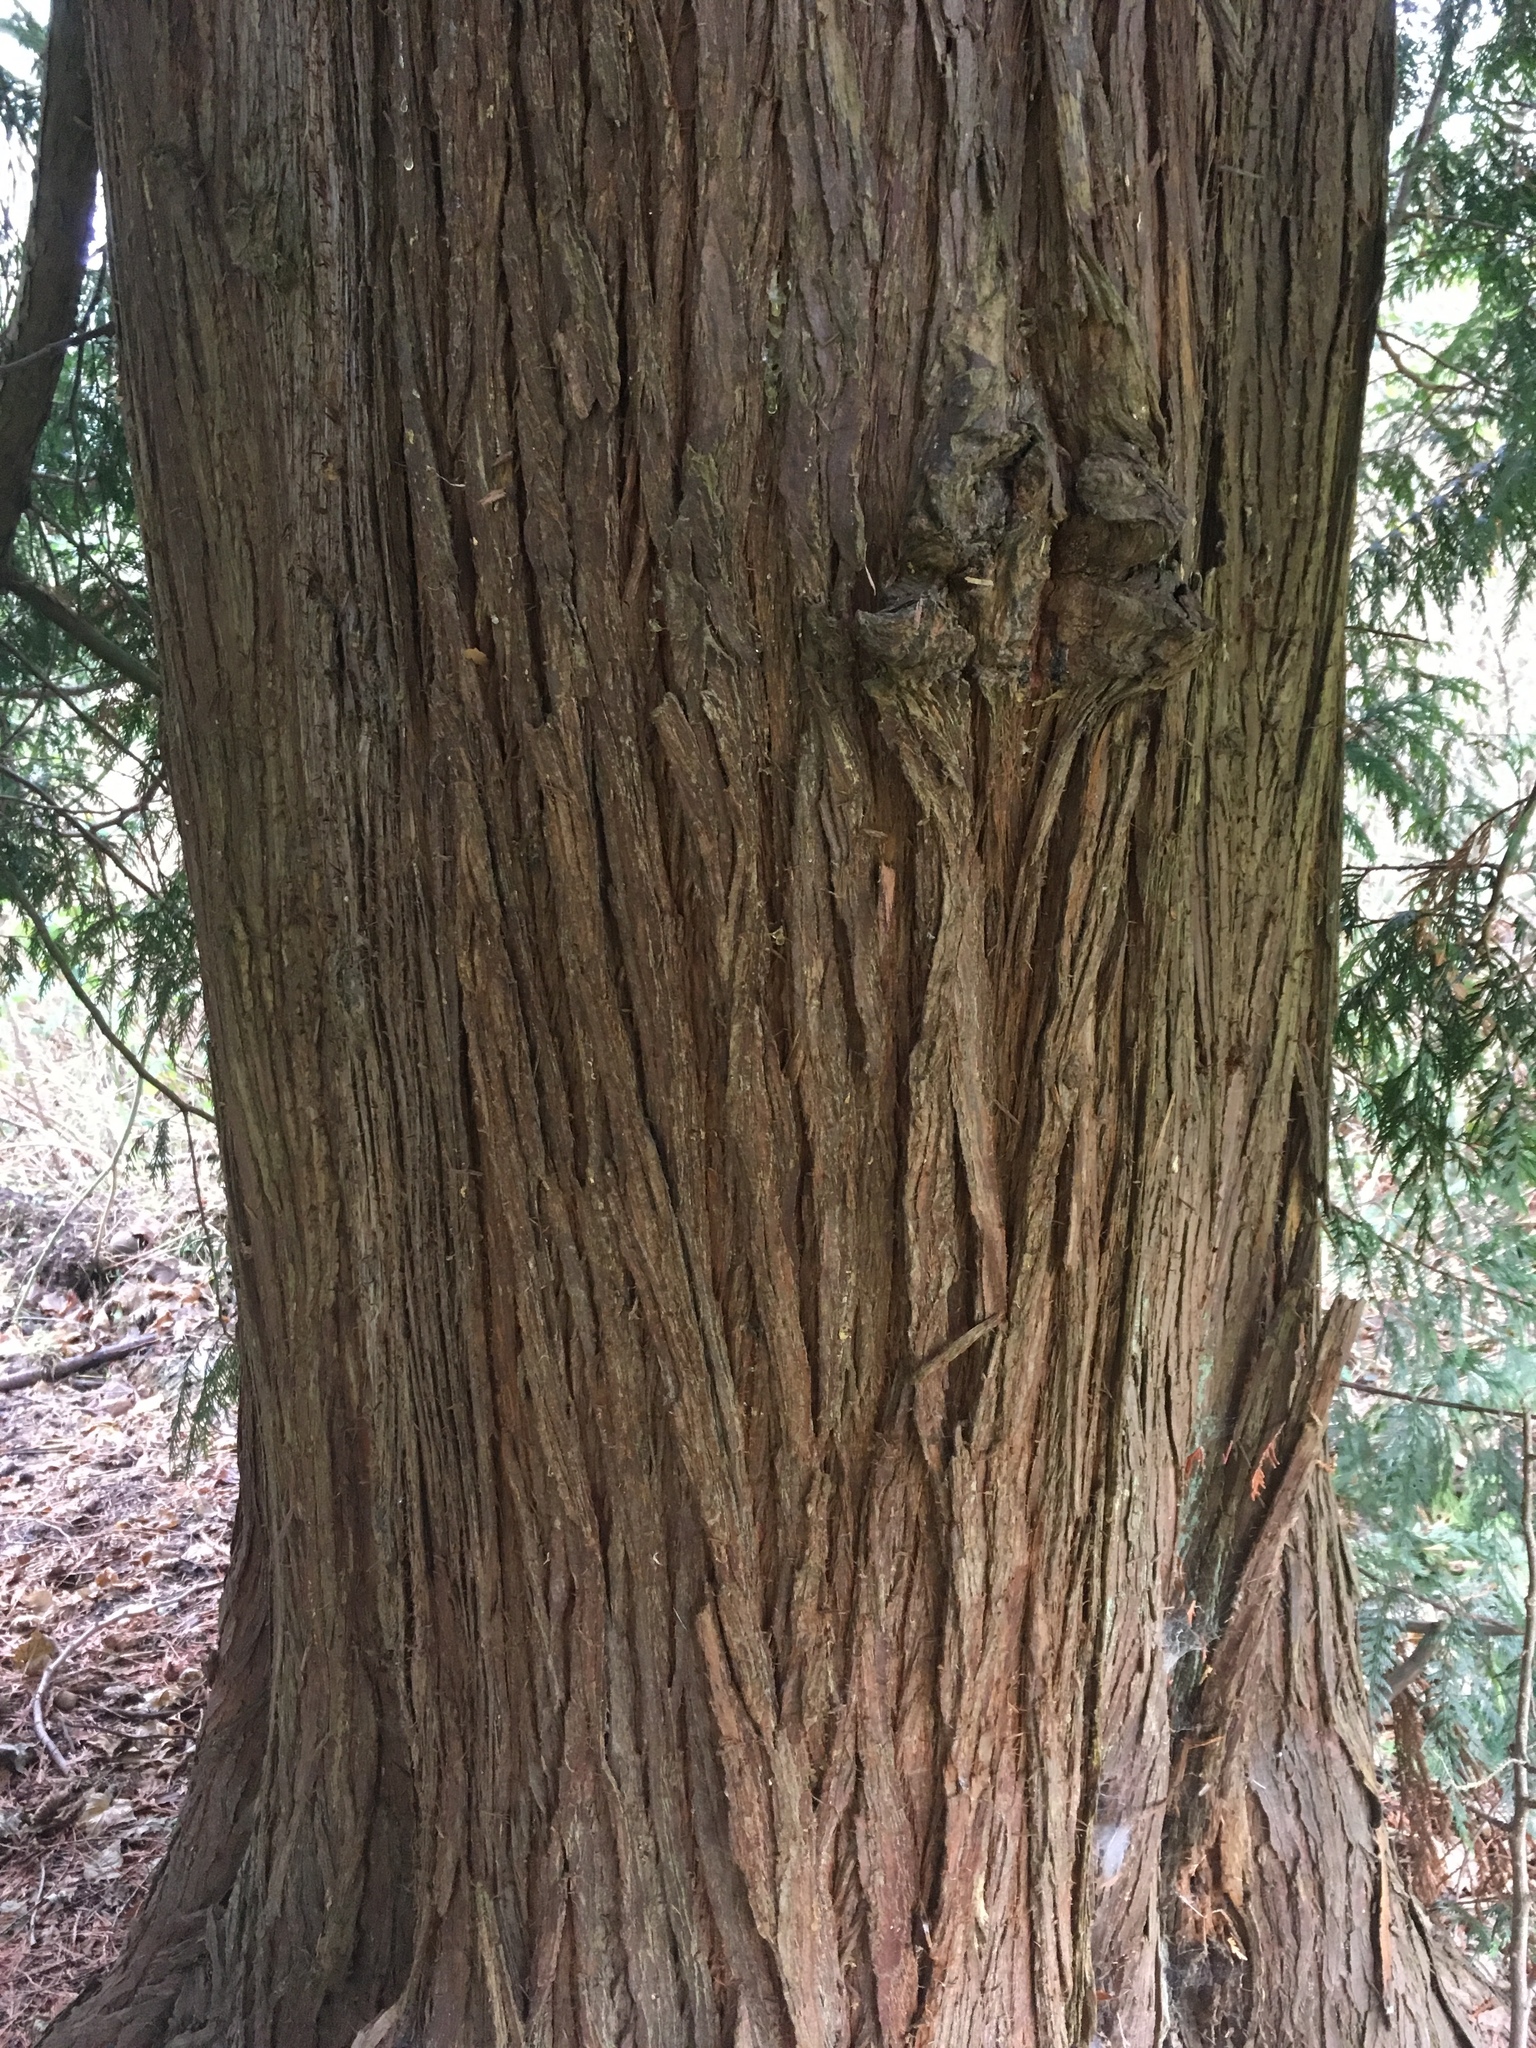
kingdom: Plantae
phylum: Tracheophyta
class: Pinopsida
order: Pinales
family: Cupressaceae
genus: Thuja
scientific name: Thuja plicata
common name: Western red-cedar
